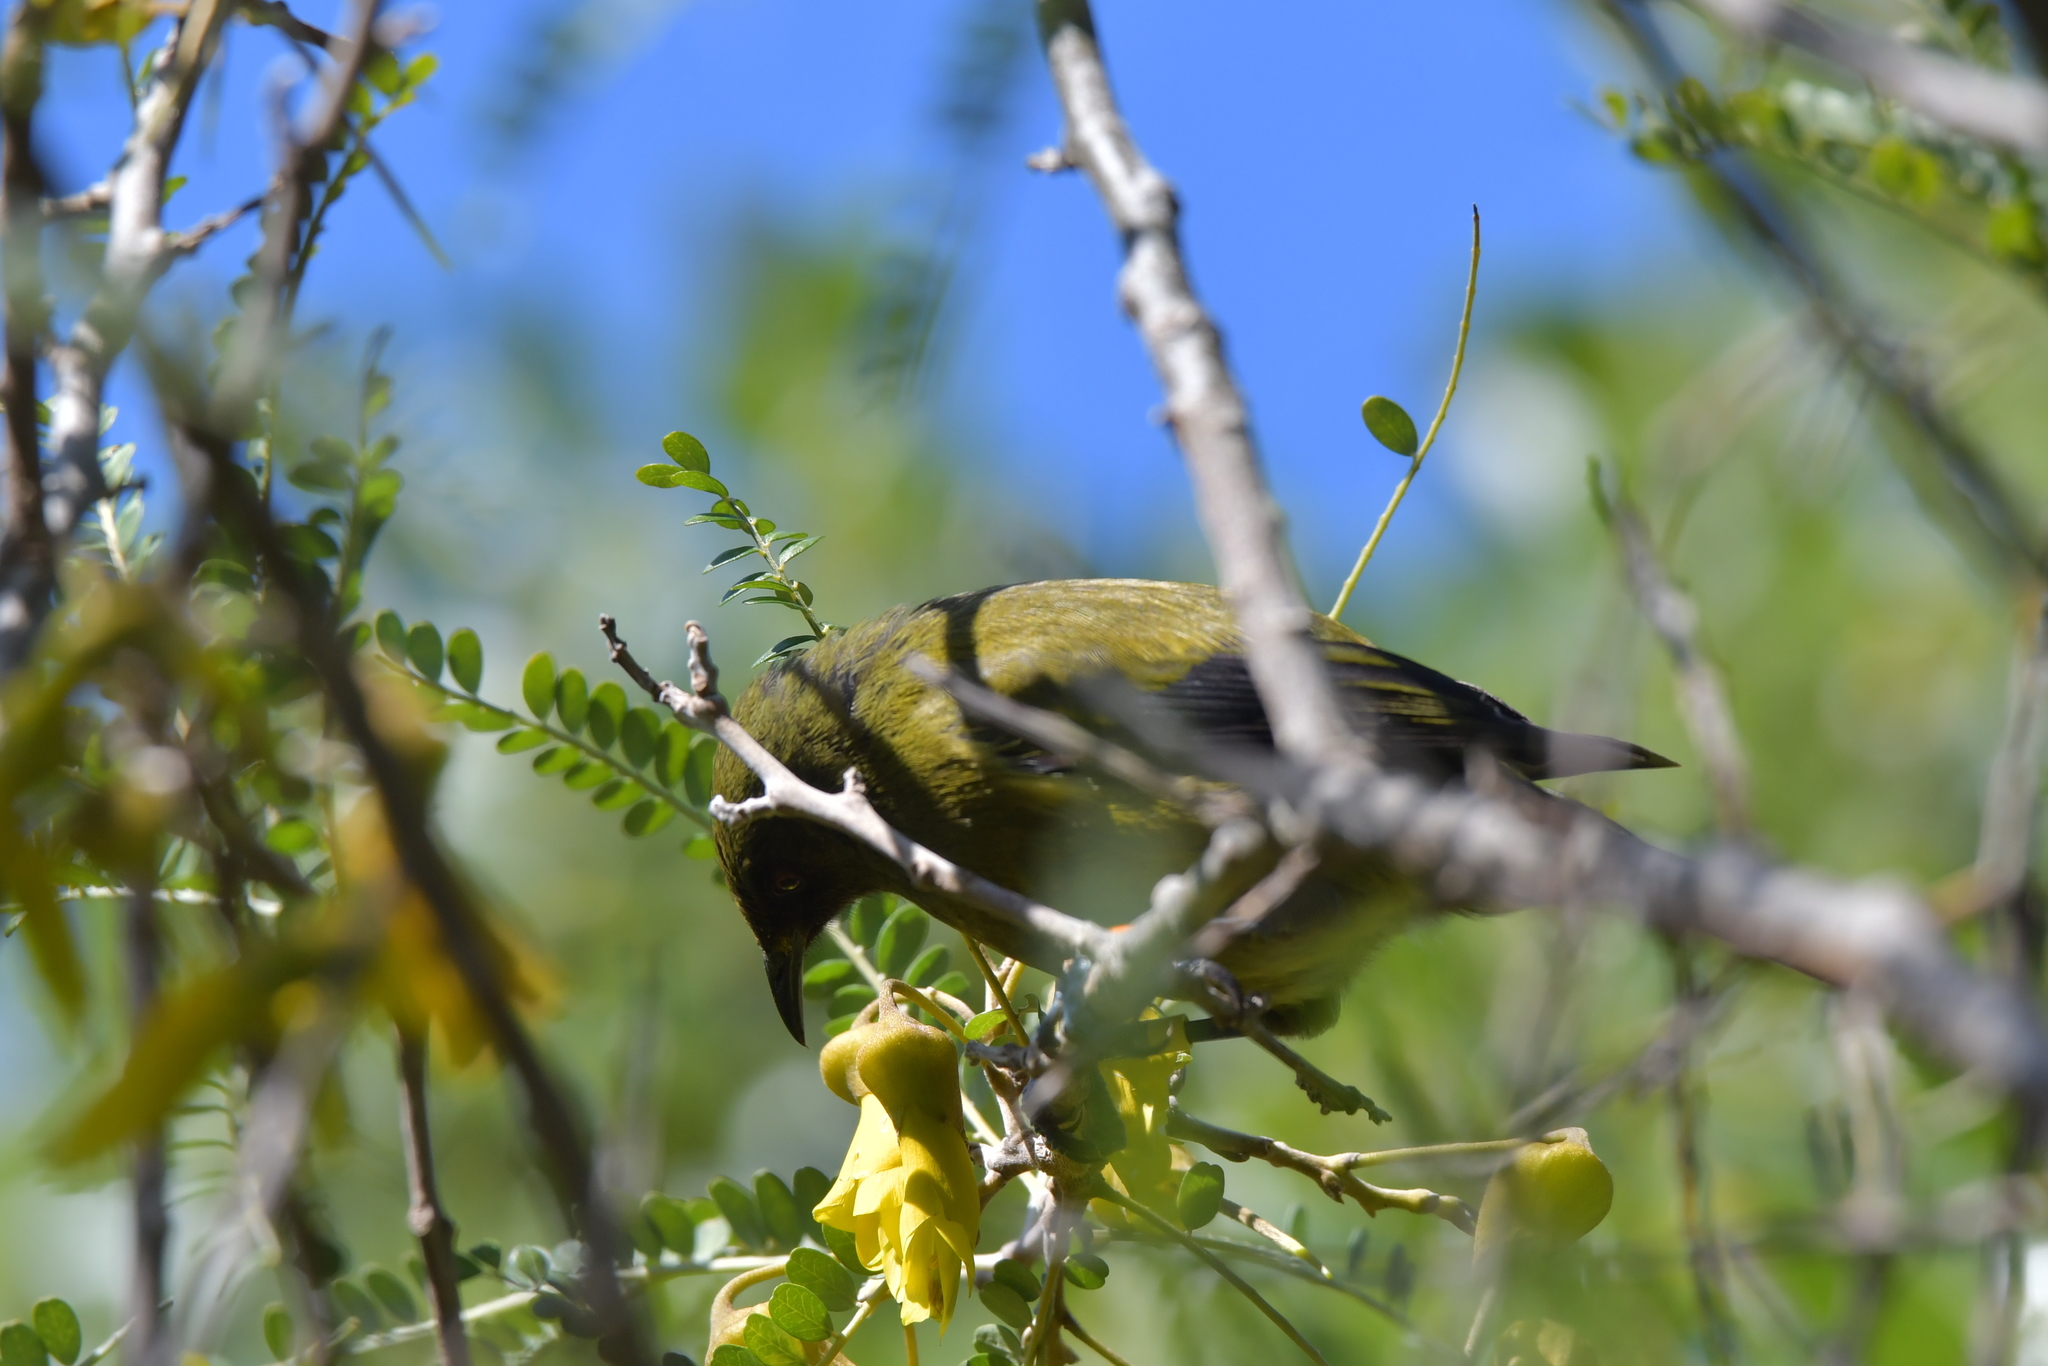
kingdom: Animalia
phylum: Chordata
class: Aves
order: Passeriformes
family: Meliphagidae
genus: Anthornis
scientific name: Anthornis melanura
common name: New zealand bellbird
